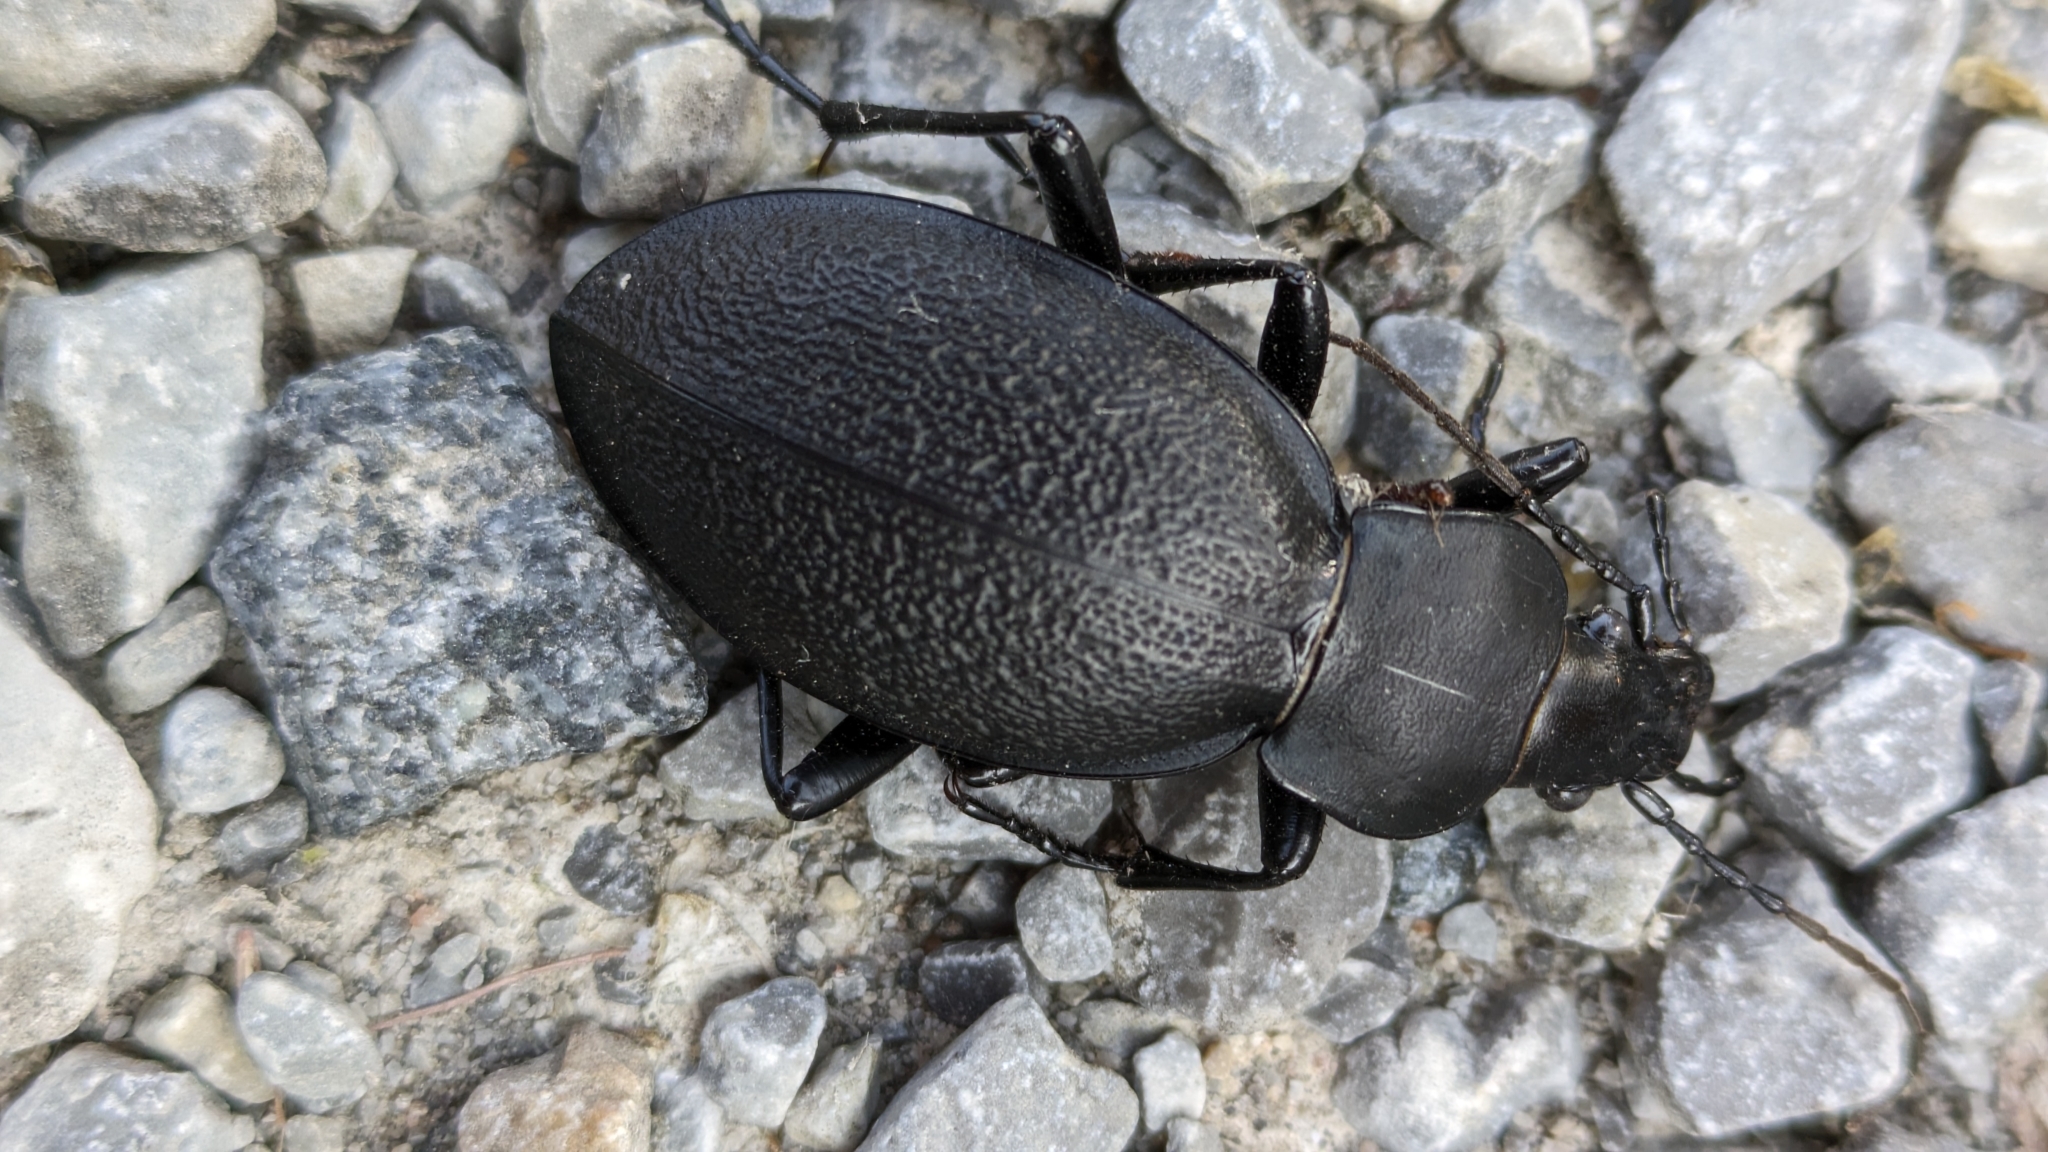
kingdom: Animalia
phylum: Arthropoda
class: Insecta
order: Coleoptera
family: Carabidae
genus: Carabus
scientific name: Carabus coriaceus
